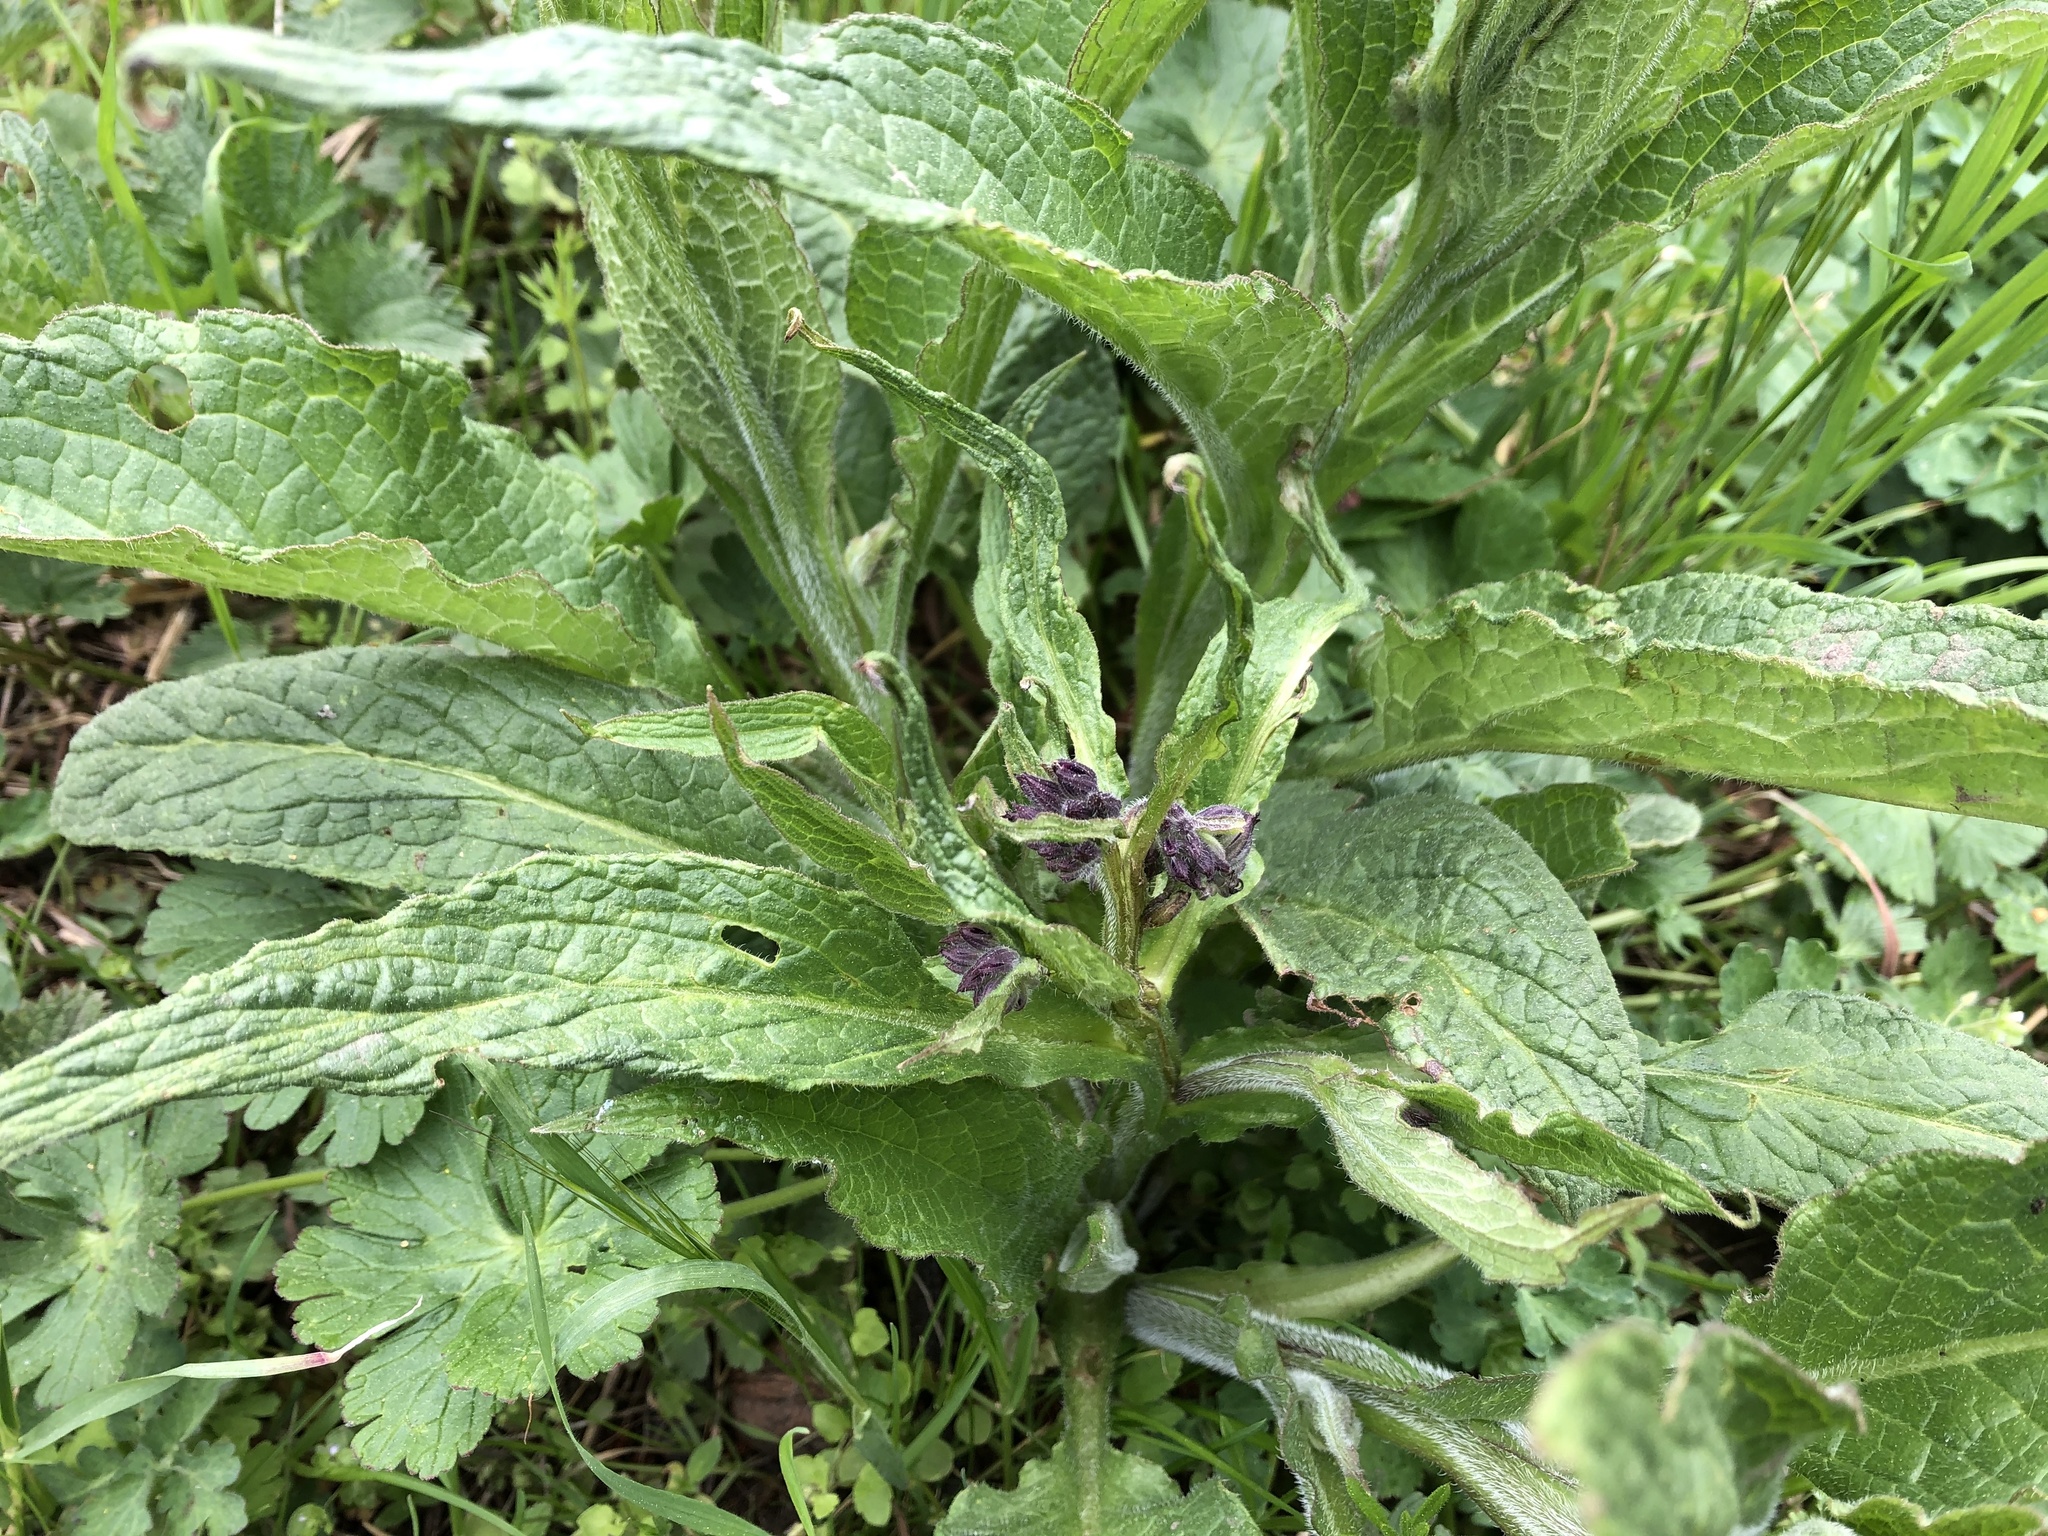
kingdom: Plantae
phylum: Tracheophyta
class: Magnoliopsida
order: Boraginales
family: Boraginaceae
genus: Symphytum
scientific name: Symphytum officinale
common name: Common comfrey
